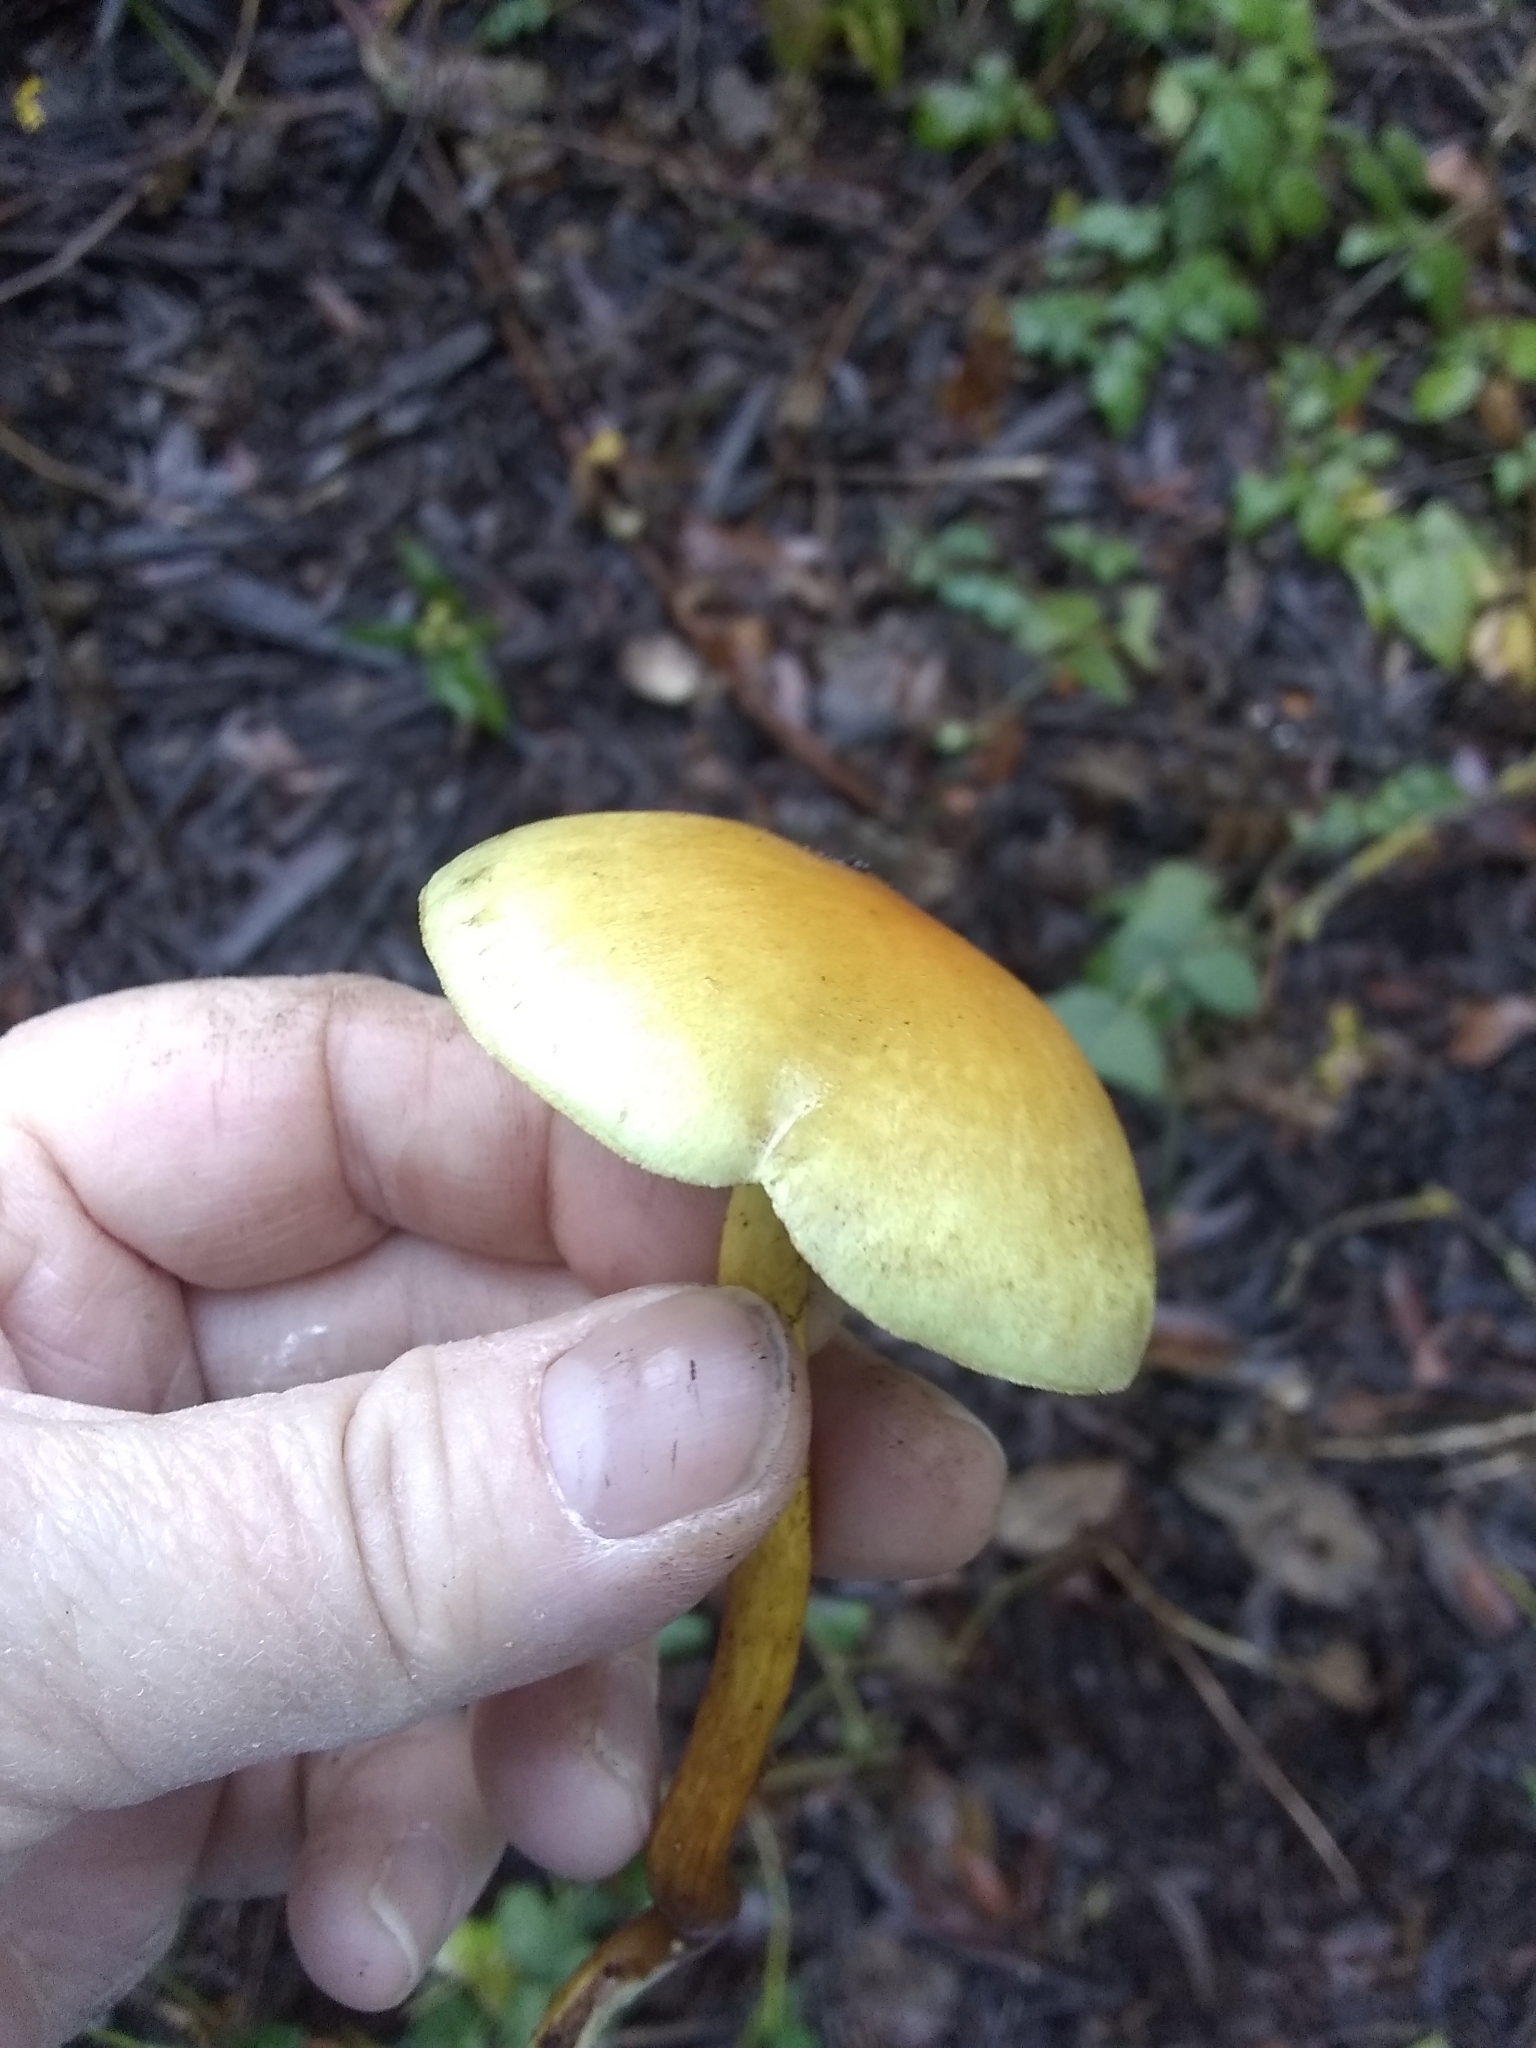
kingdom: Fungi
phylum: Basidiomycota
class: Agaricomycetes
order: Agaricales
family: Strophariaceae
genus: Hypholoma
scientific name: Hypholoma fasciculare
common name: Sulphur tuft
